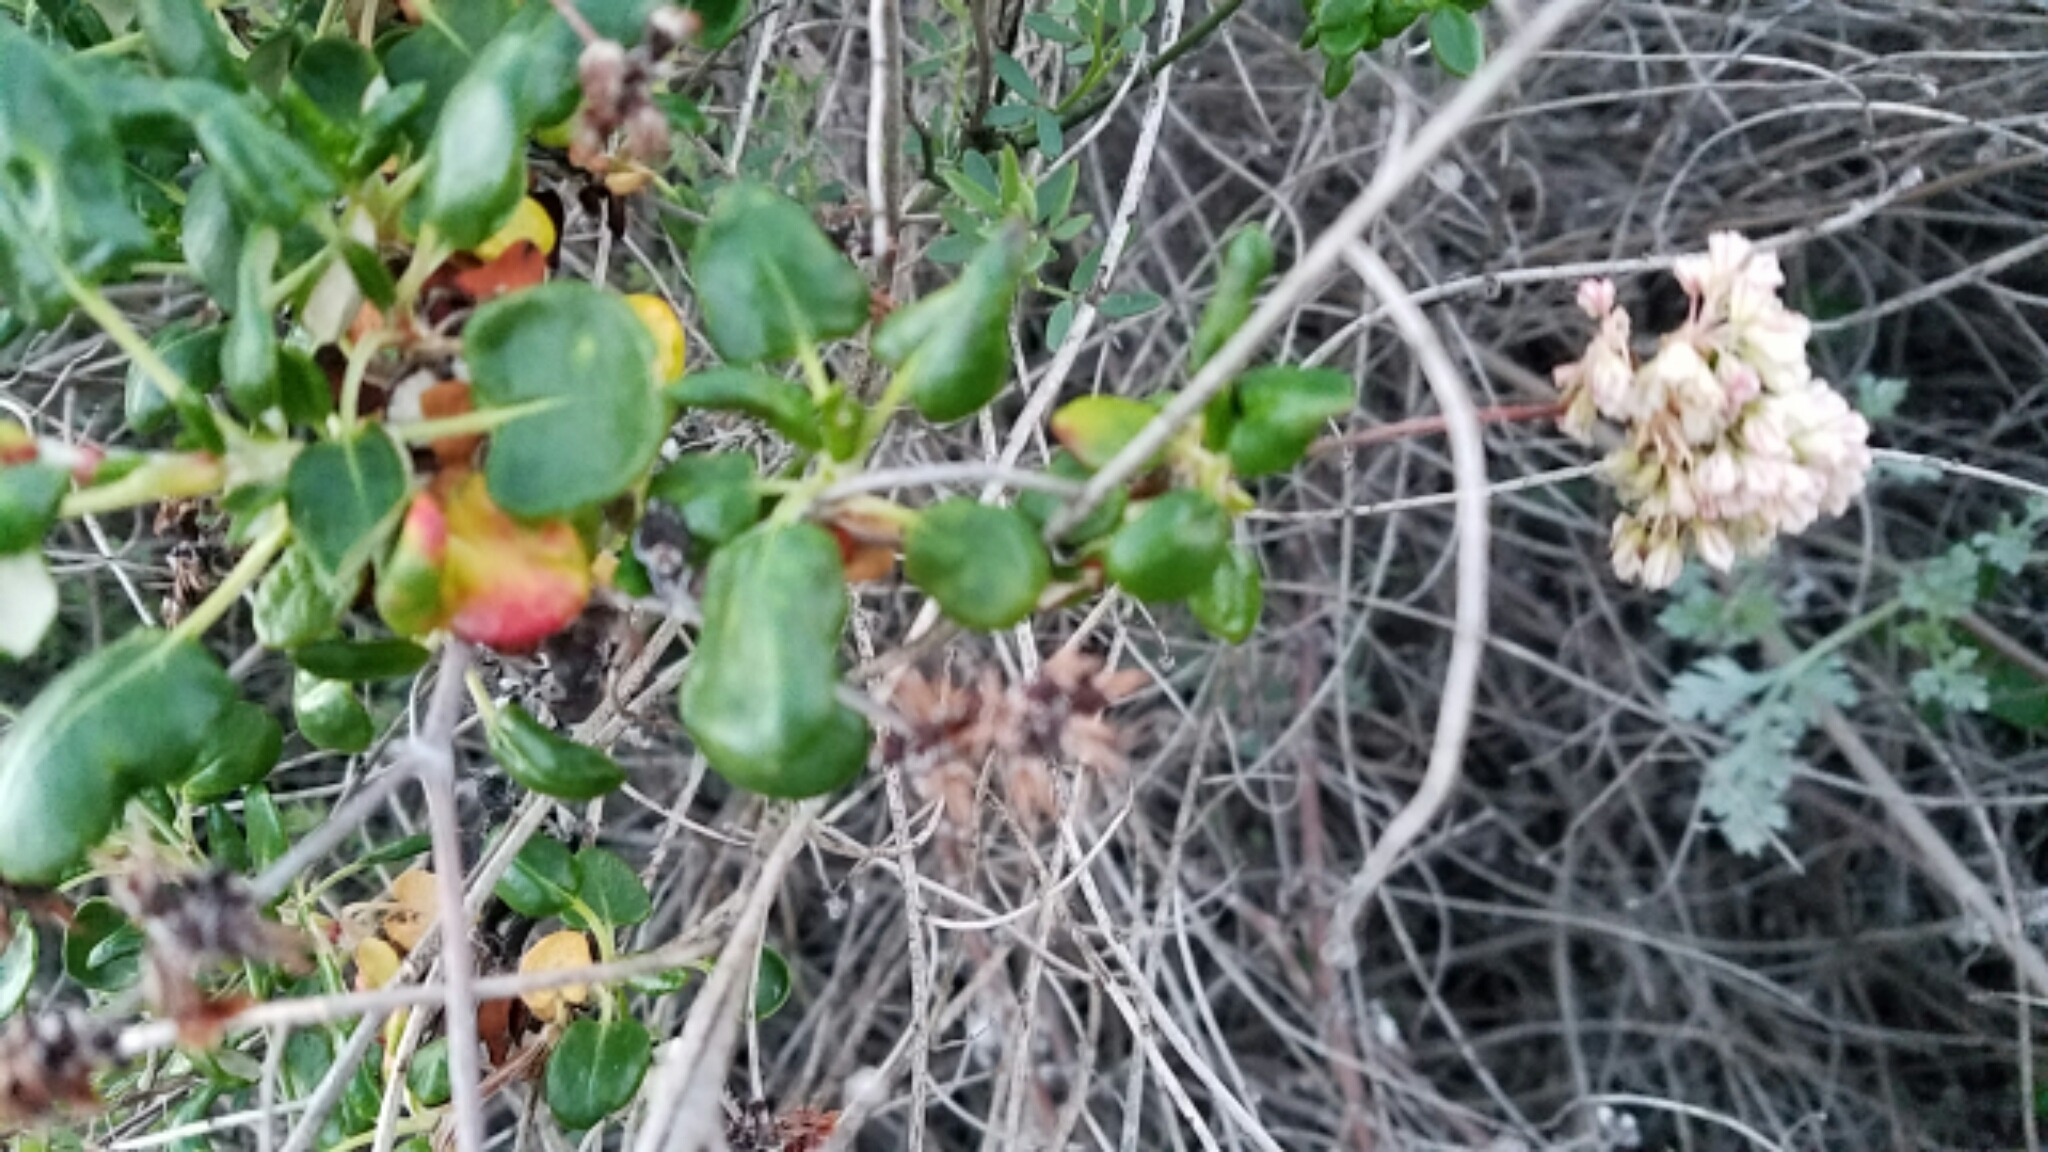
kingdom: Plantae
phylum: Tracheophyta
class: Magnoliopsida
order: Caryophyllales
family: Polygonaceae
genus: Eriogonum
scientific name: Eriogonum parvifolium
